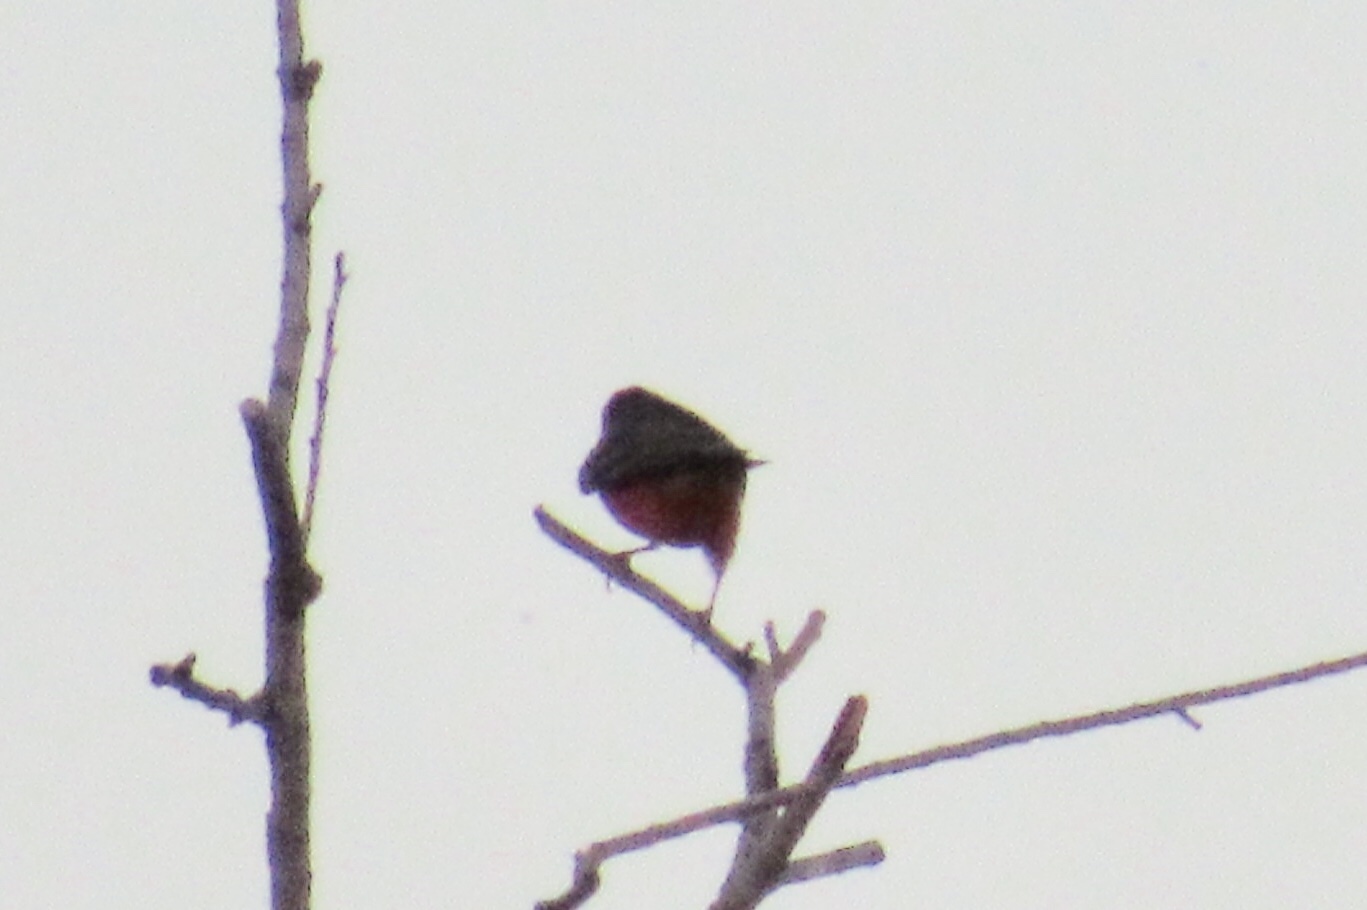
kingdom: Animalia
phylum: Chordata
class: Aves
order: Passeriformes
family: Tyrannidae
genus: Pyrocephalus
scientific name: Pyrocephalus rubinus
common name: Vermilion flycatcher
